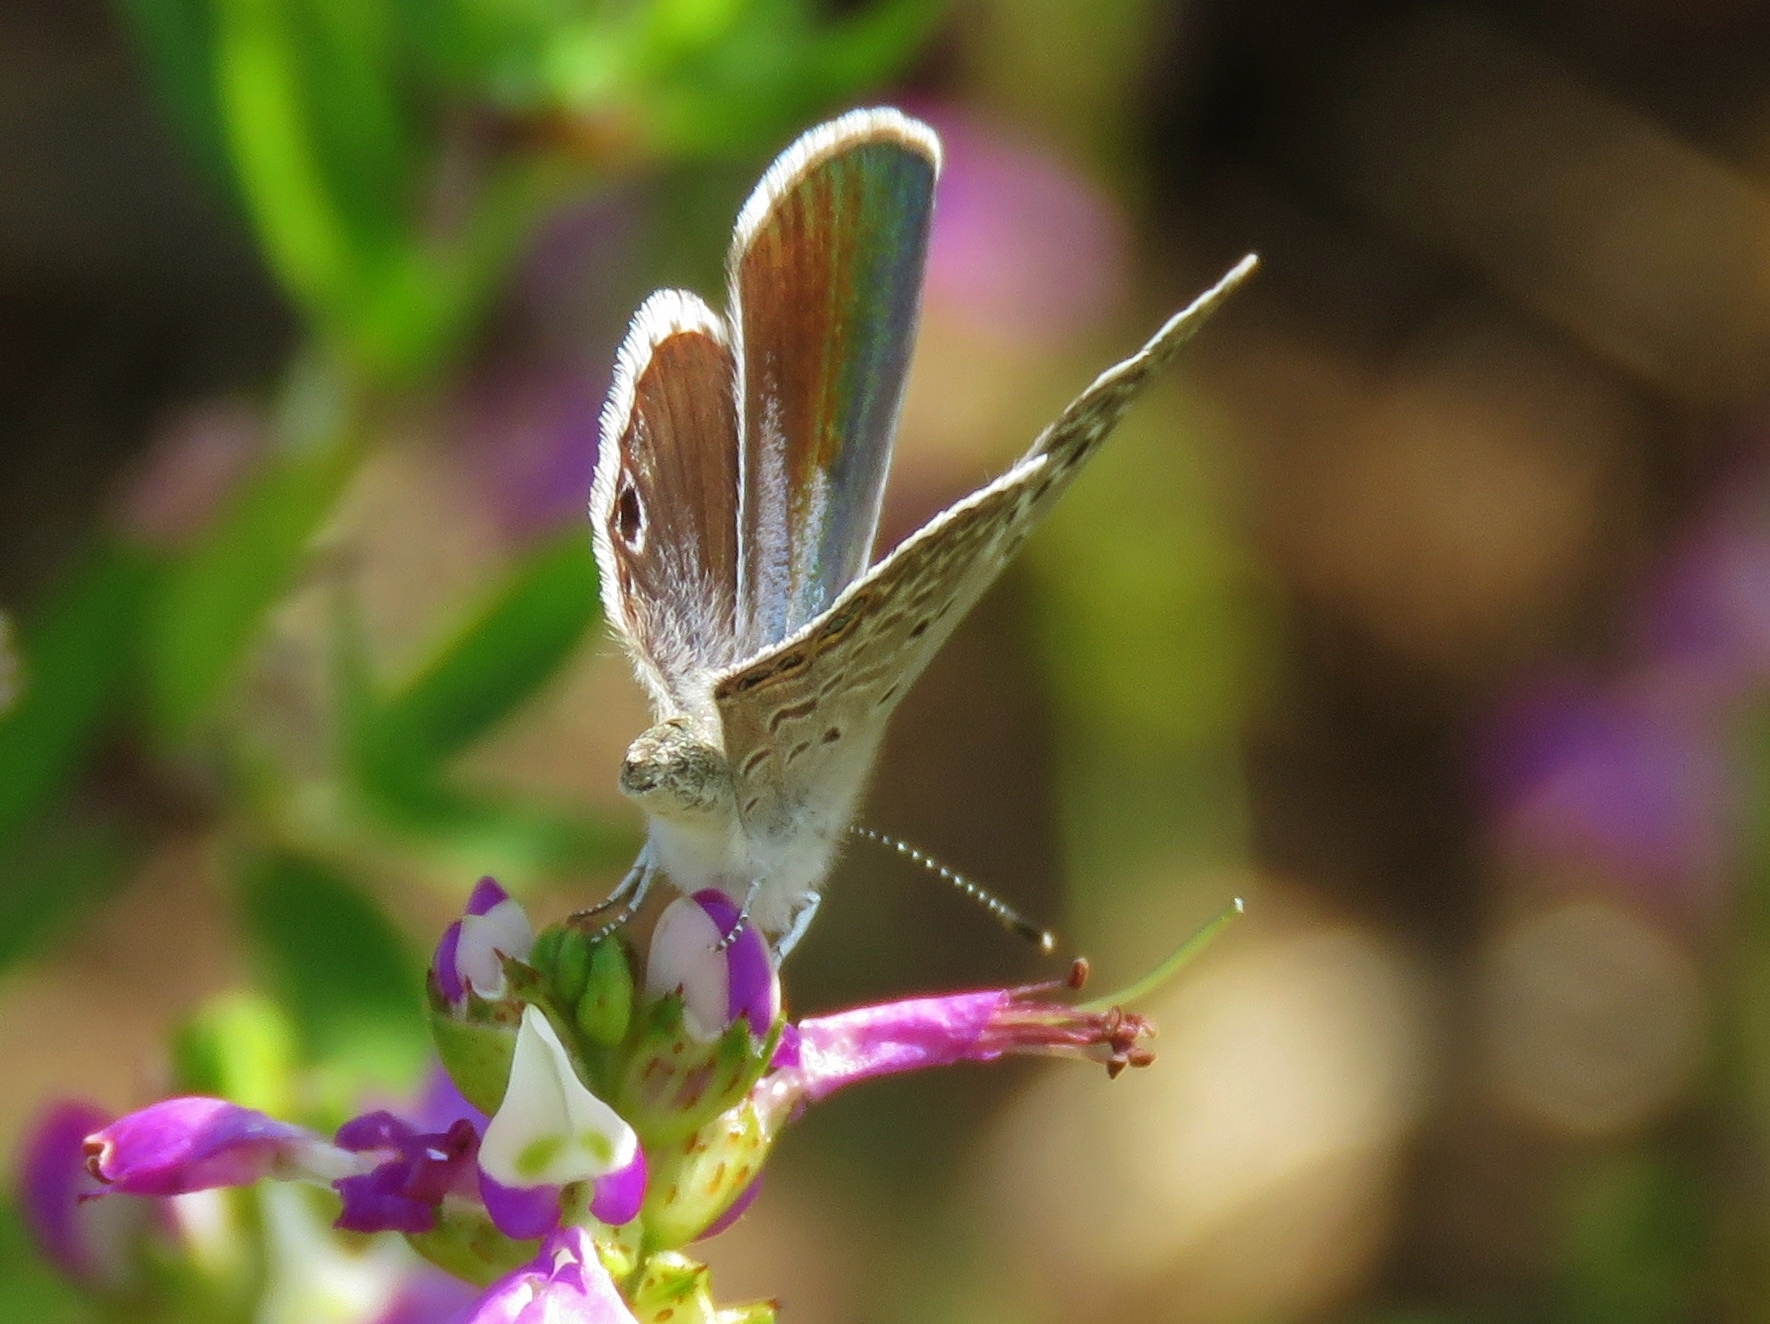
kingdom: Animalia
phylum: Arthropoda
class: Insecta
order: Lepidoptera
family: Lycaenidae
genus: Echinargus
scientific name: Echinargus isola
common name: Reakirt's blue
